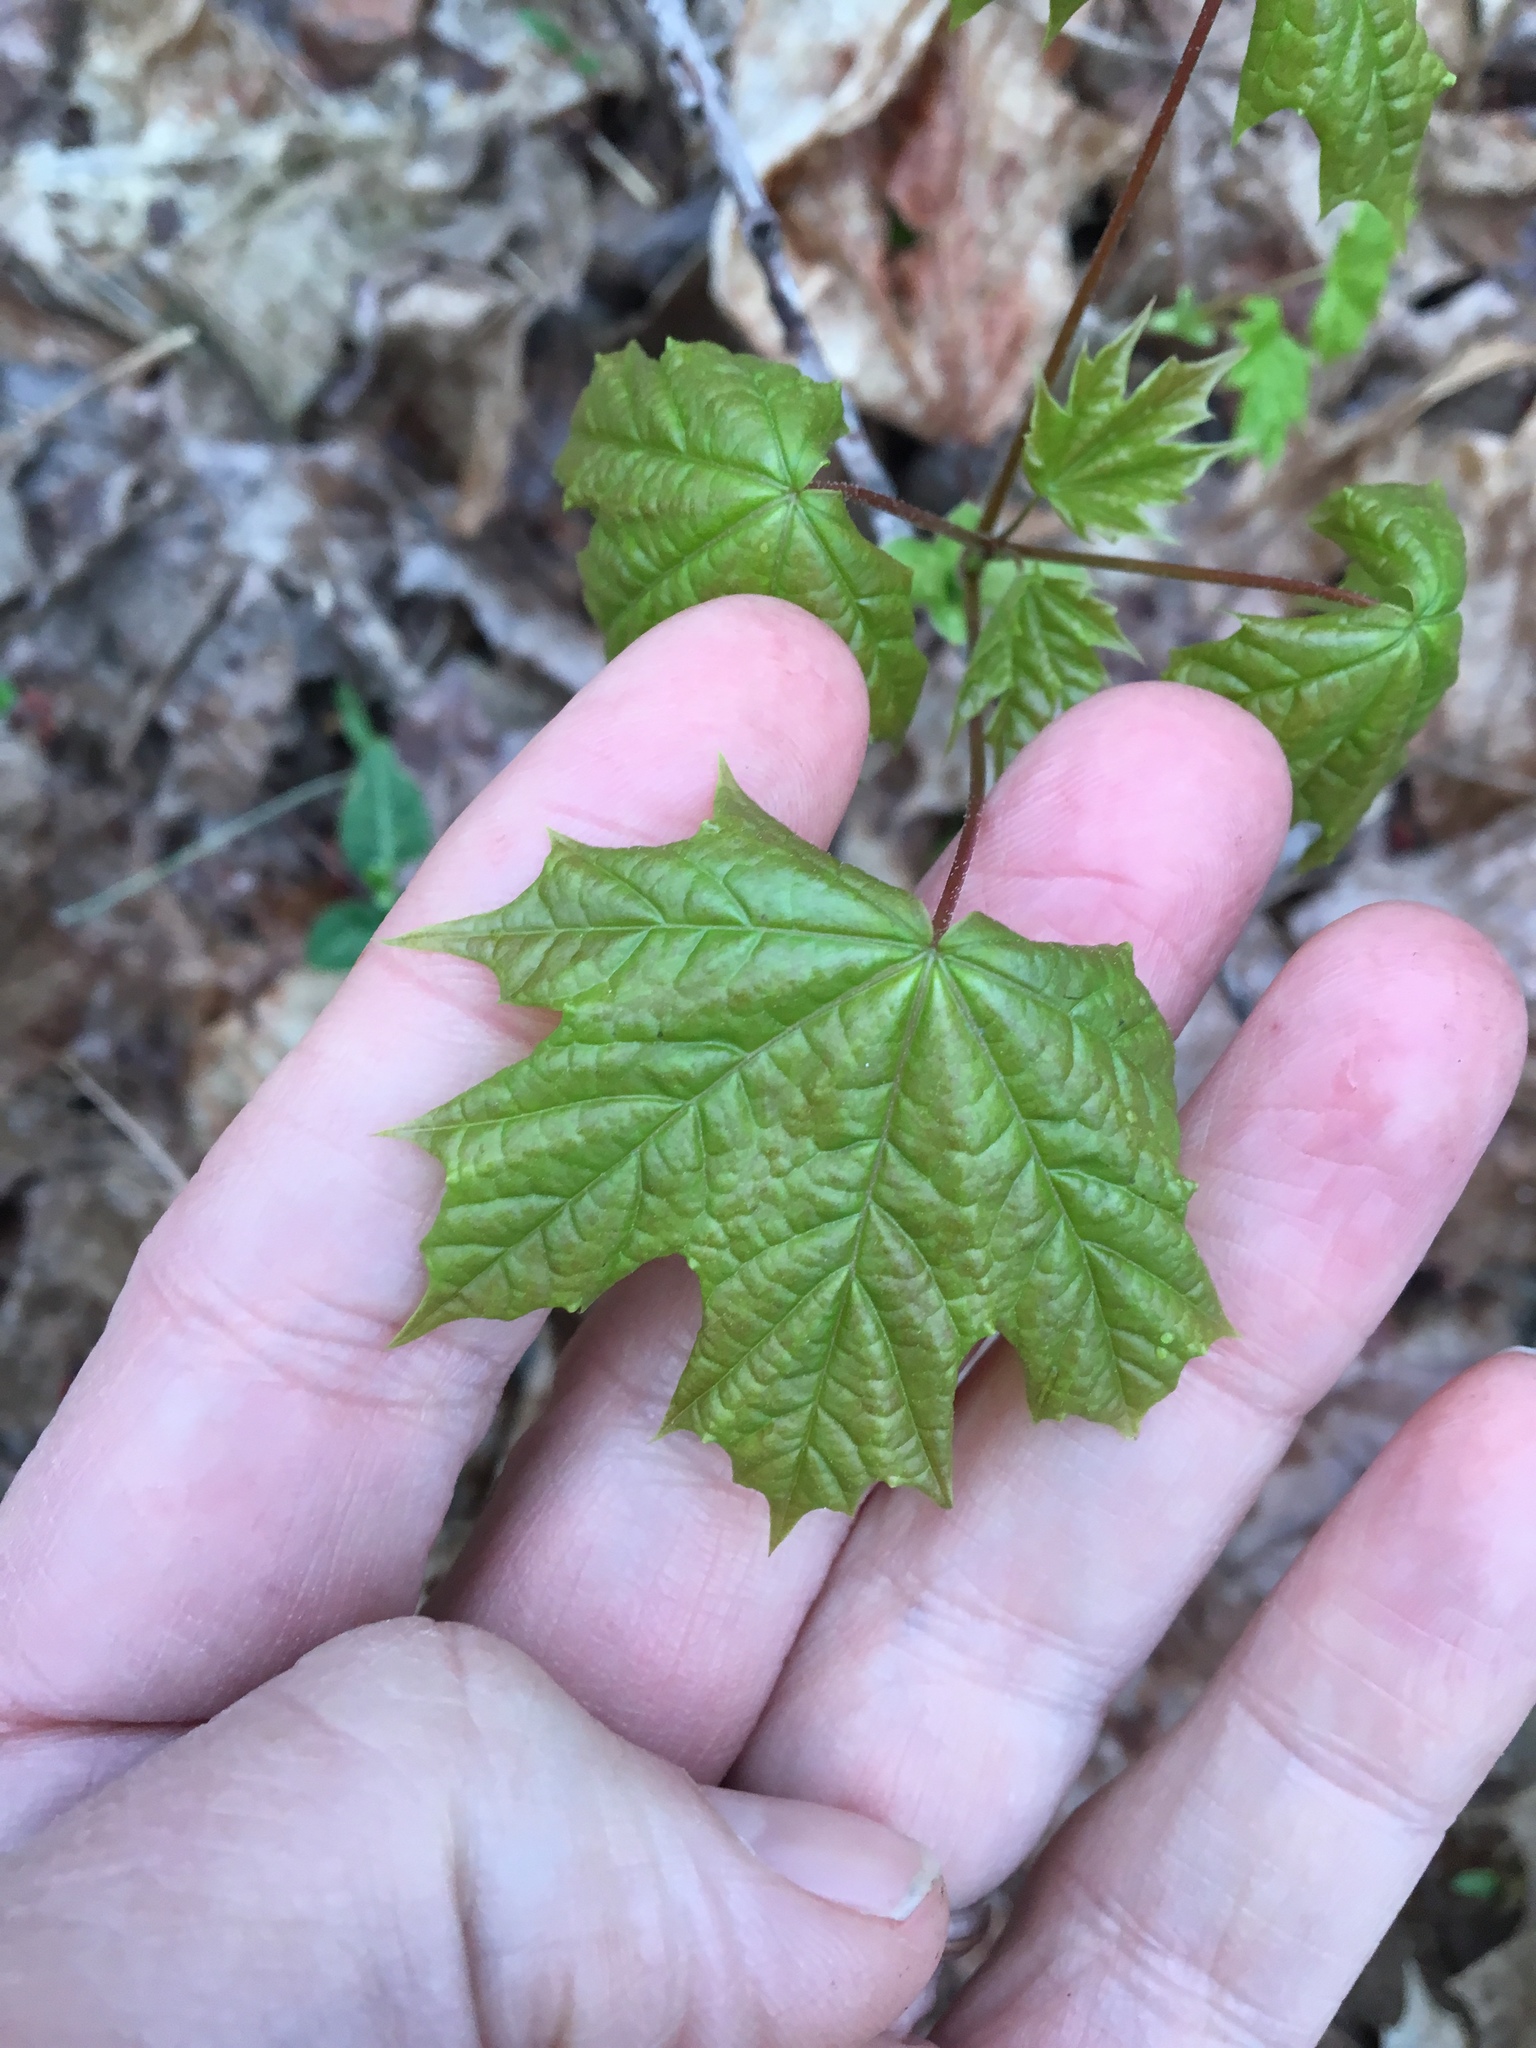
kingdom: Plantae
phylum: Tracheophyta
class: Magnoliopsida
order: Sapindales
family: Sapindaceae
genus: Acer
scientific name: Acer platanoides
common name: Norway maple
